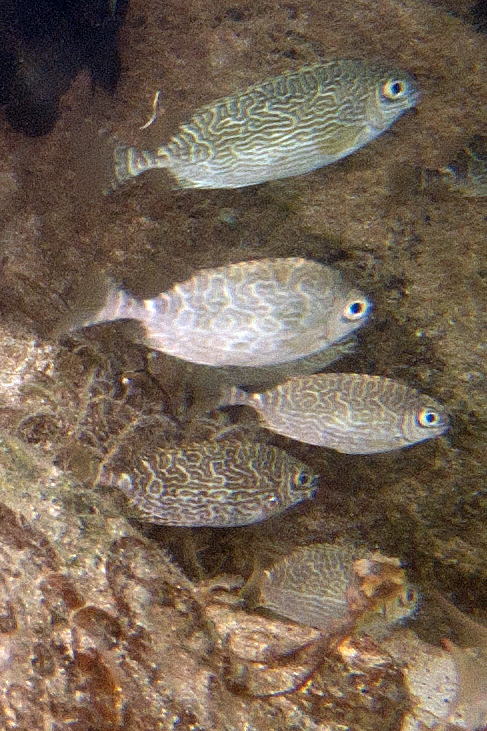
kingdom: Animalia
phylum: Chordata
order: Perciformes
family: Siganidae
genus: Siganus
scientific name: Siganus spinus
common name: Scribbled rabbitfish
